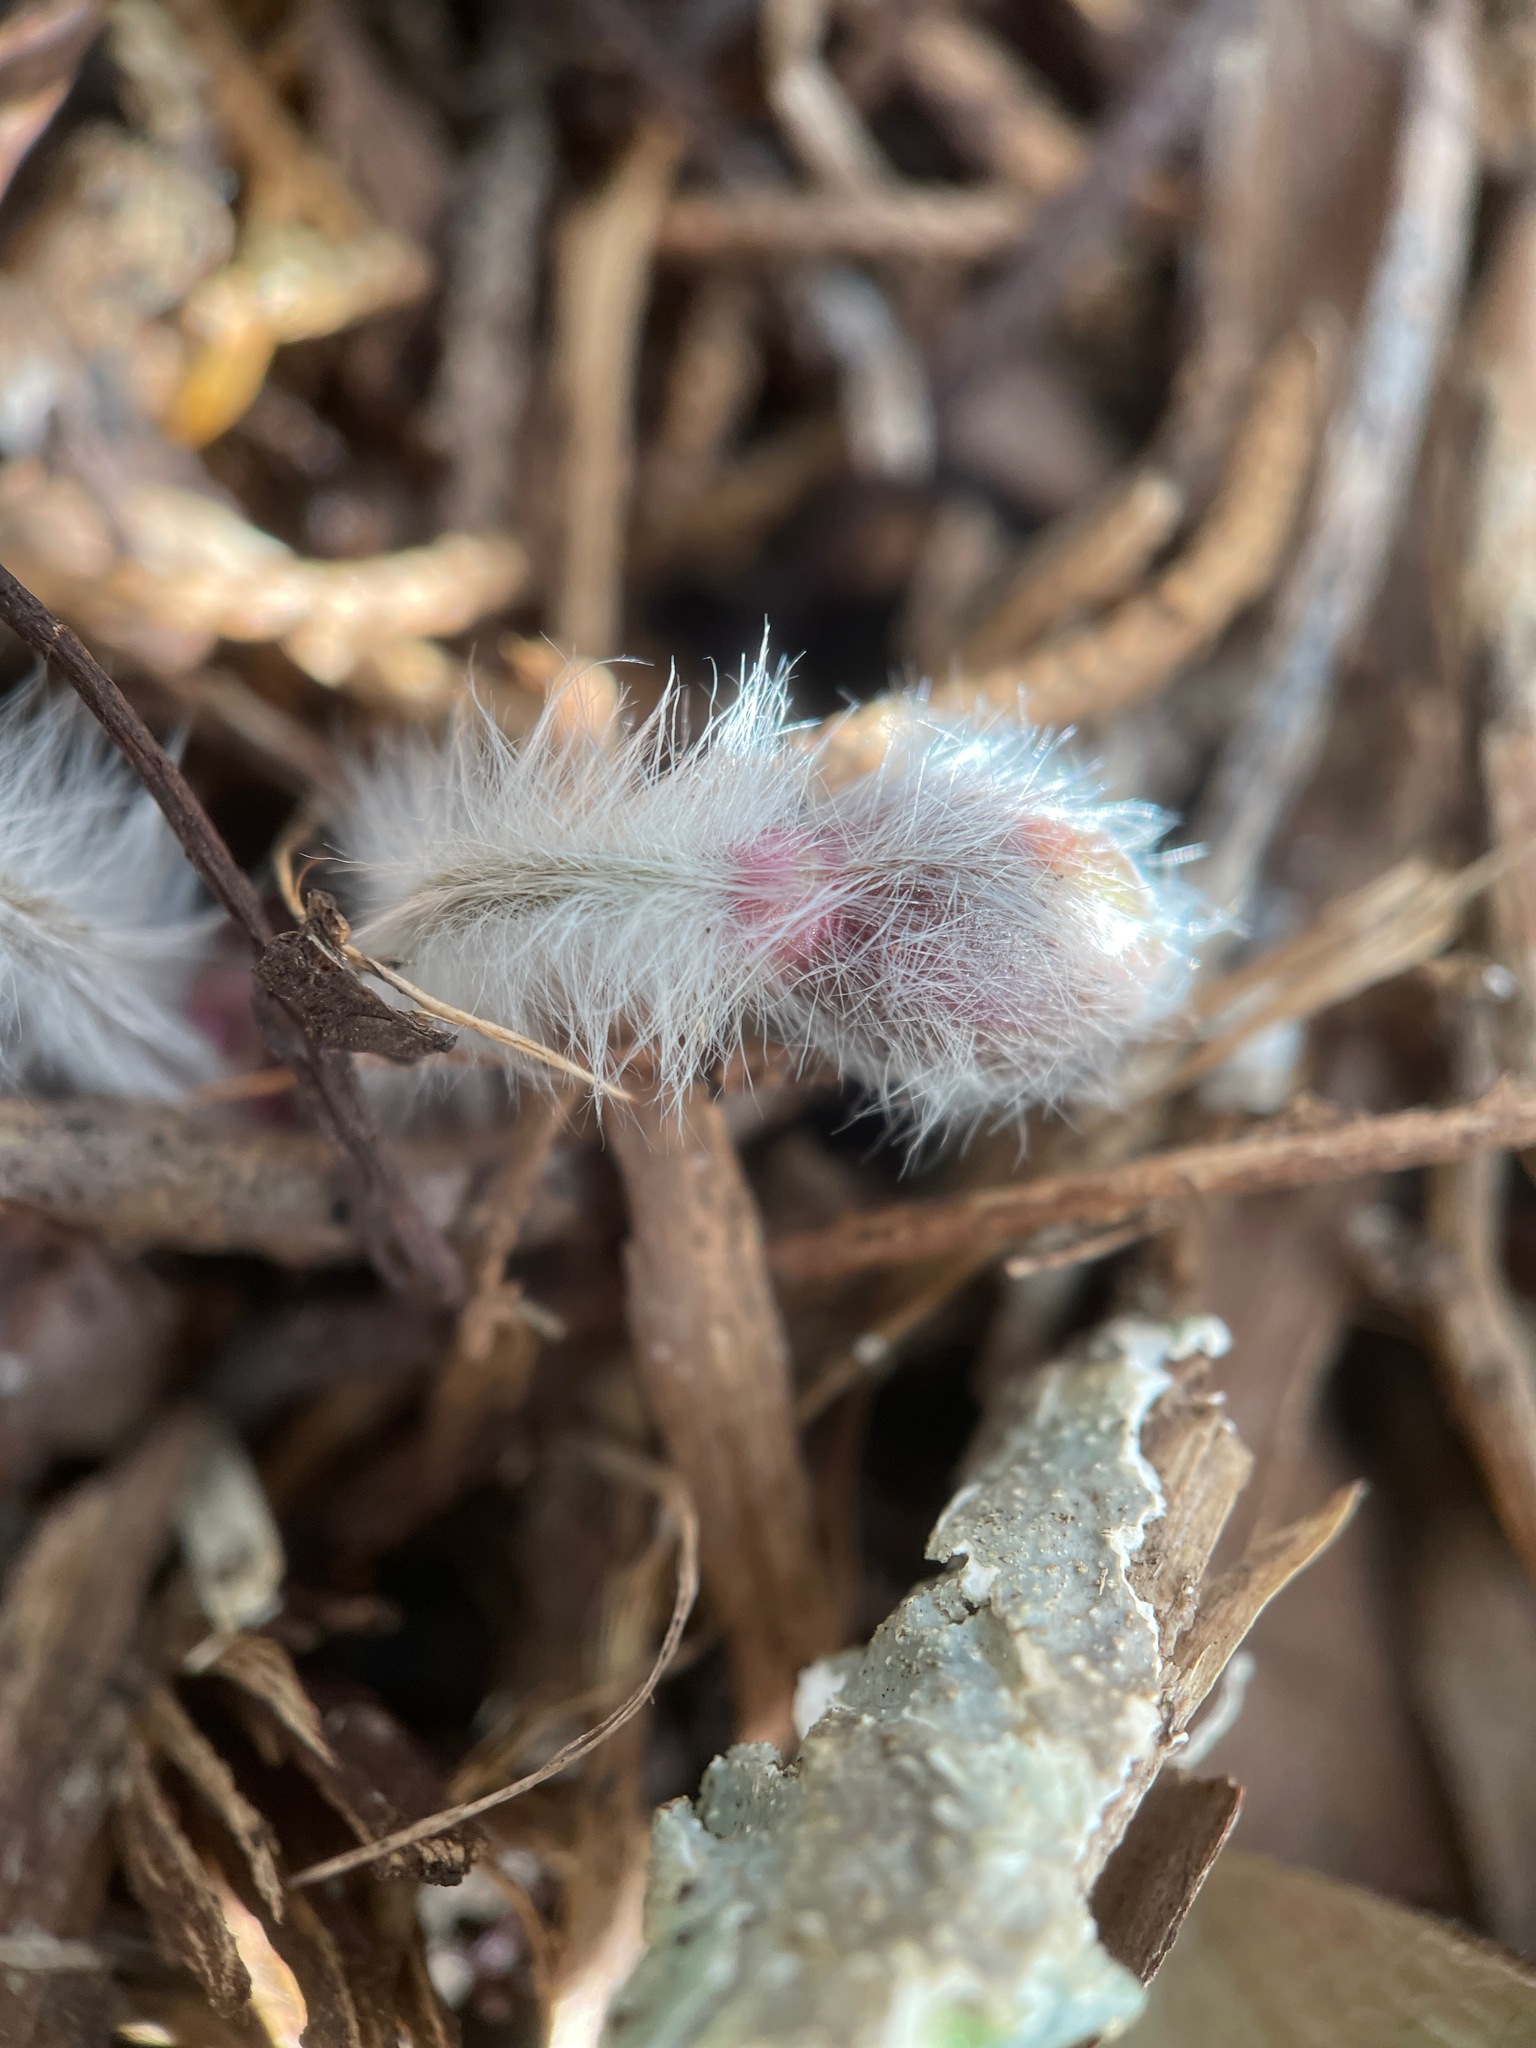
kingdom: Plantae
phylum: Tracheophyta
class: Magnoliopsida
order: Ranunculales
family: Ranunculaceae
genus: Hepatica
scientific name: Hepatica americana
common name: American hepatica
